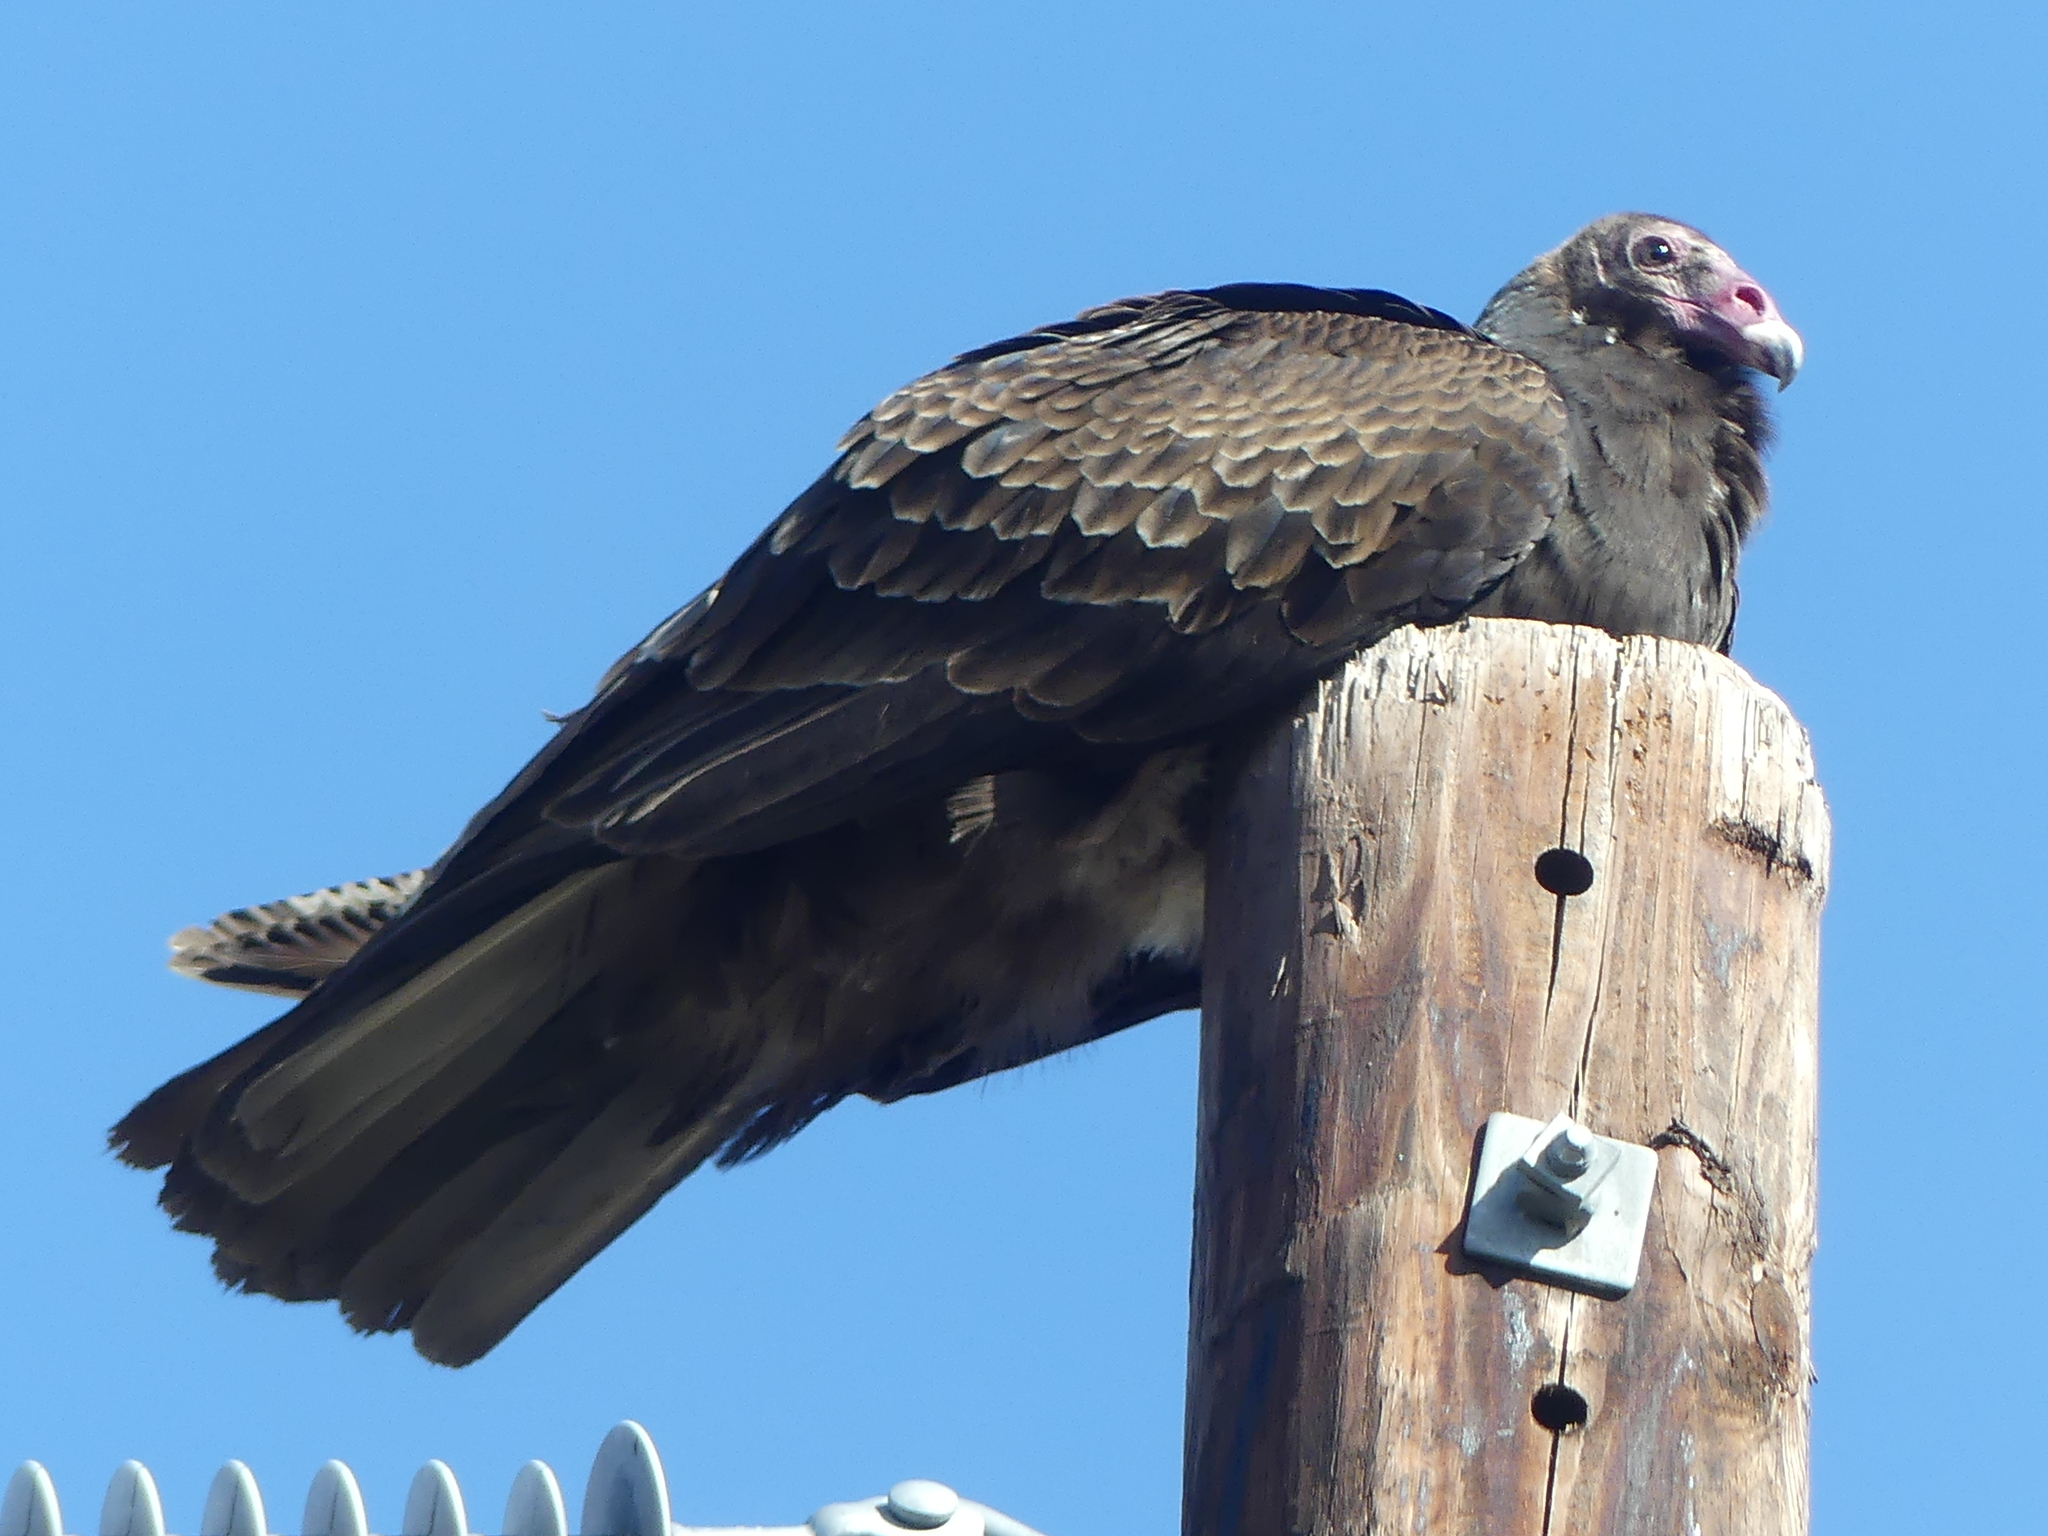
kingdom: Animalia
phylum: Chordata
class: Aves
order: Accipitriformes
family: Cathartidae
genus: Cathartes
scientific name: Cathartes aura
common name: Turkey vulture
